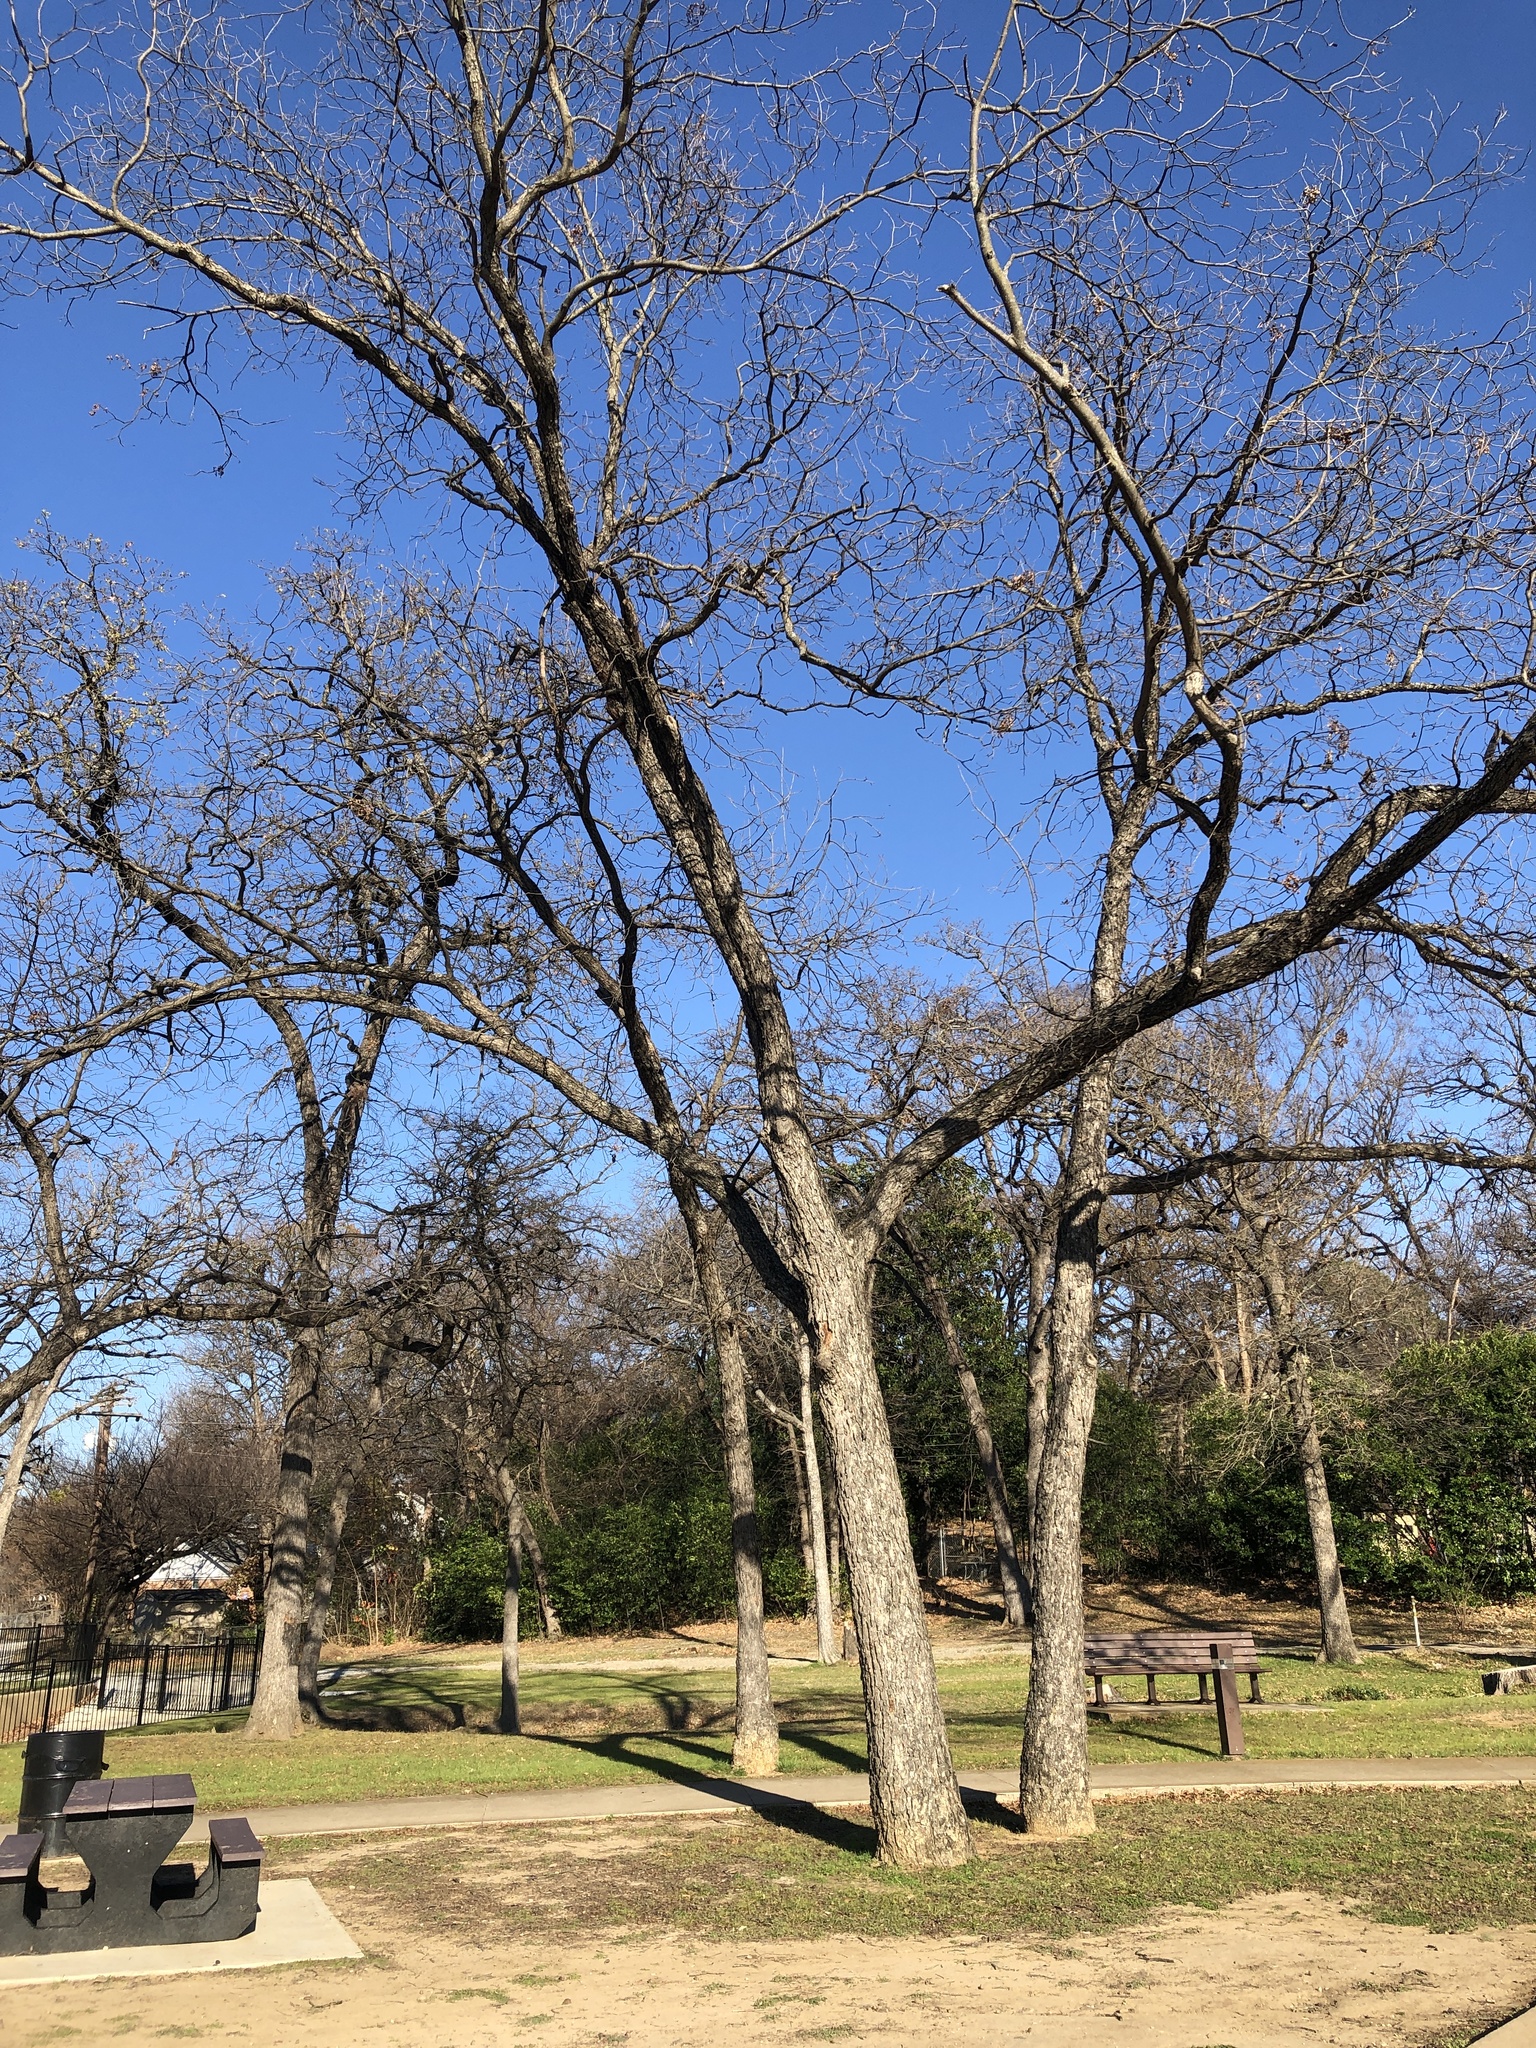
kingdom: Plantae
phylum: Tracheophyta
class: Magnoliopsida
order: Fagales
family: Juglandaceae
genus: Carya
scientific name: Carya illinoinensis
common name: Pecan
